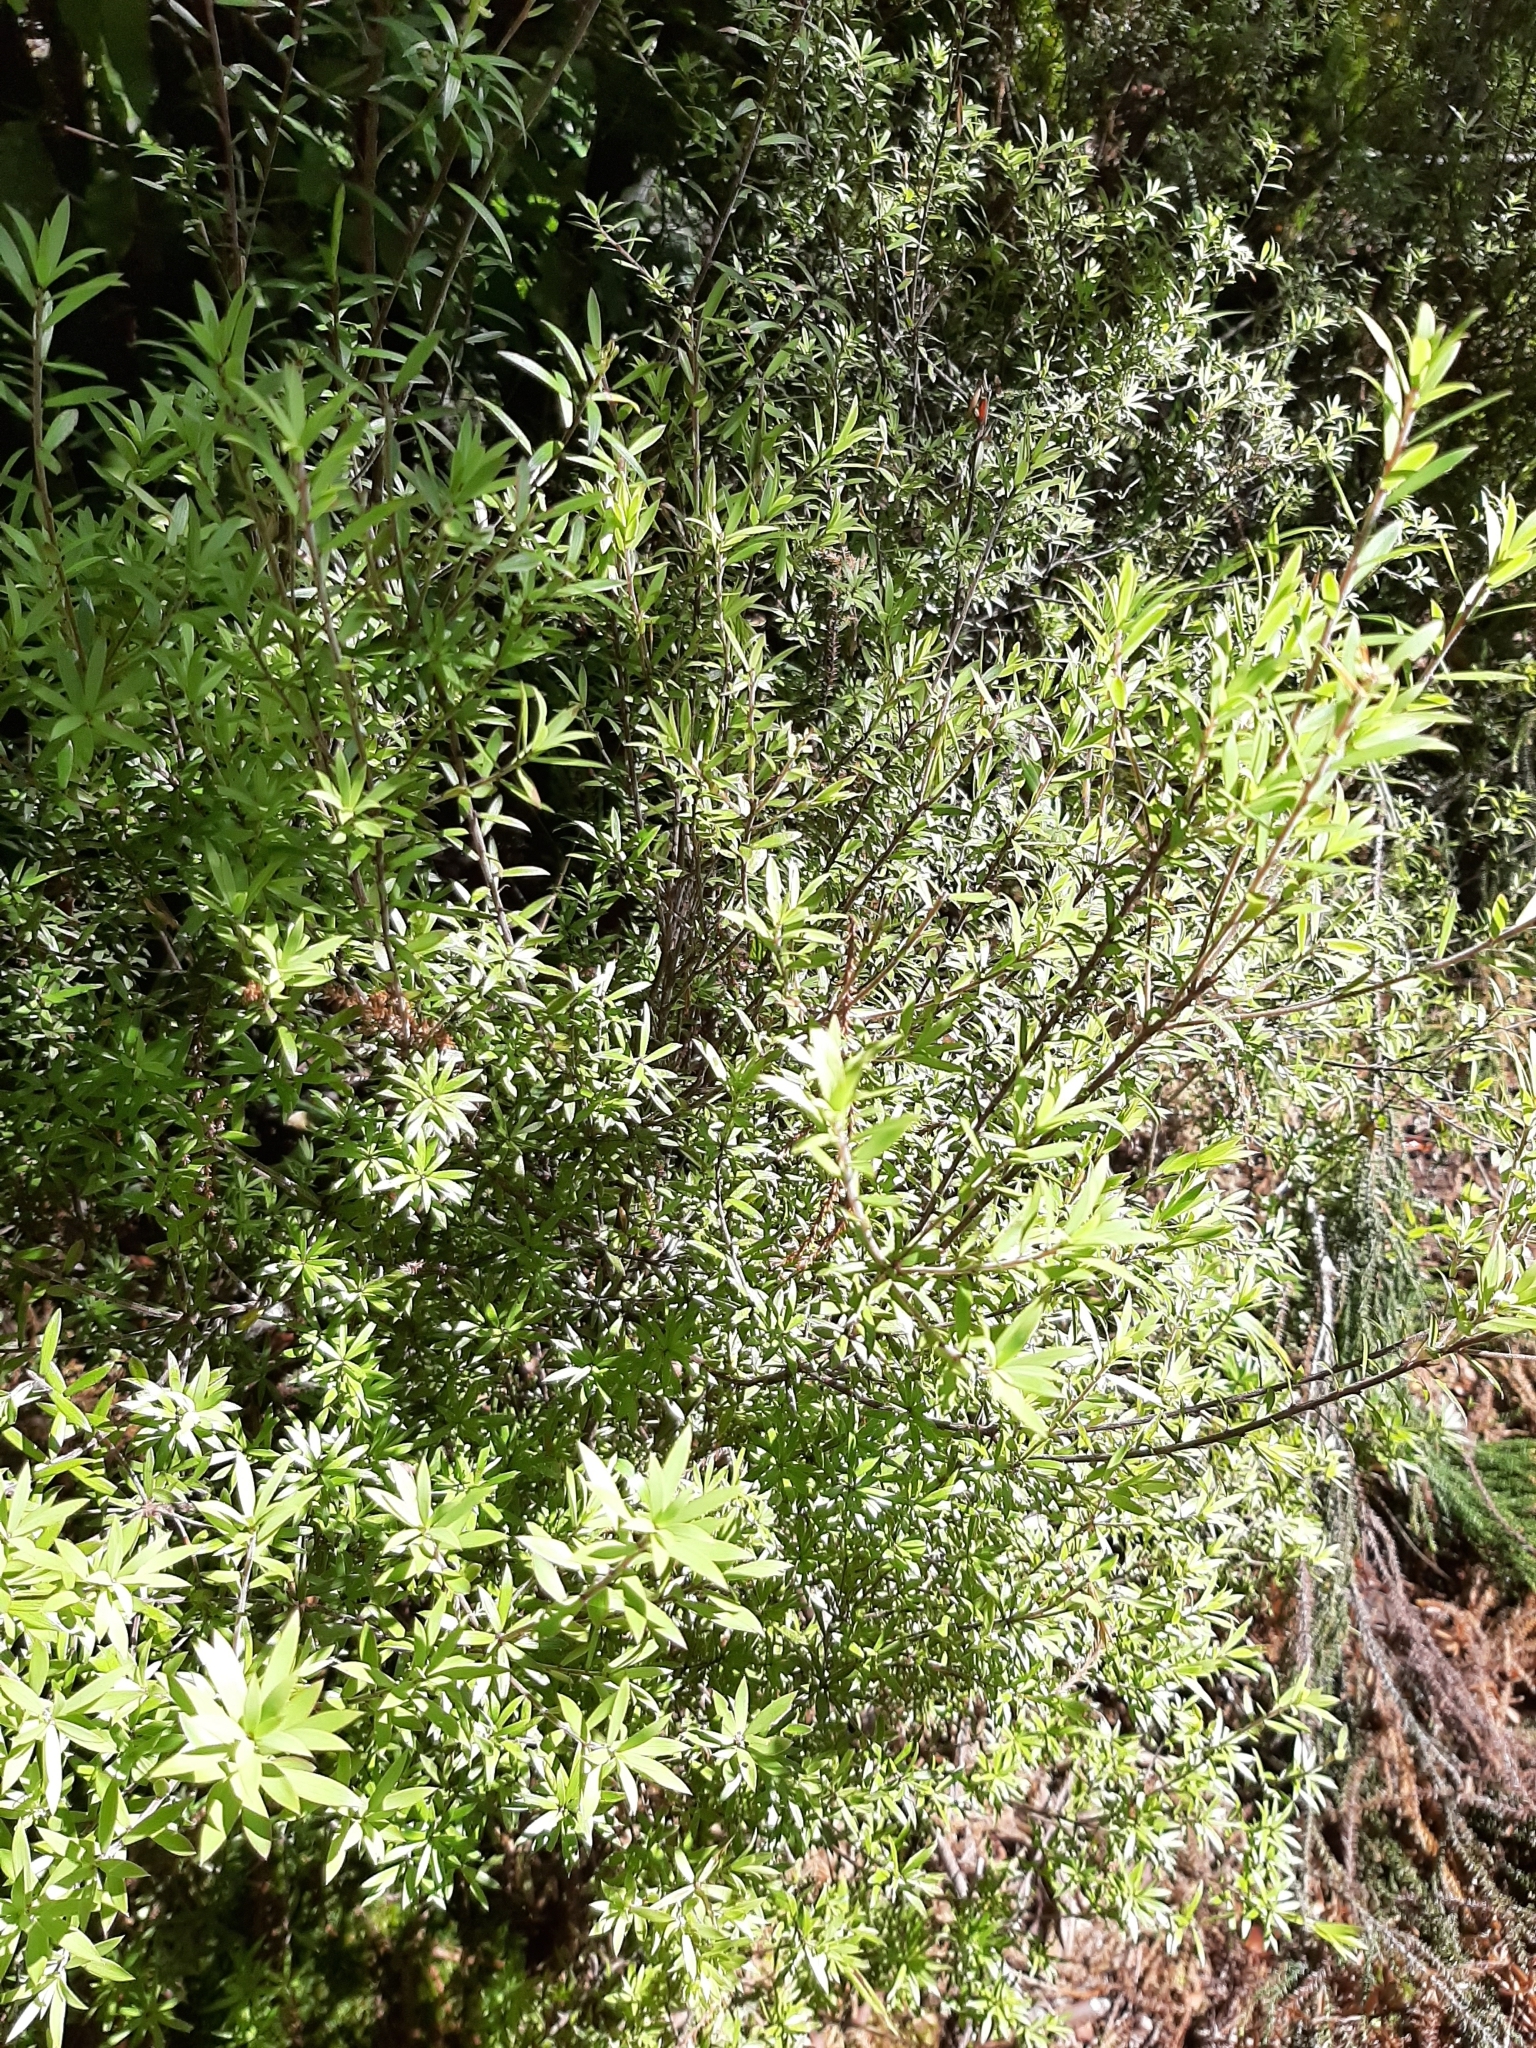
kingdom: Plantae
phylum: Tracheophyta
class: Magnoliopsida
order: Ericales
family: Ericaceae
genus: Leucopogon
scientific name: Leucopogon fasciculatus
